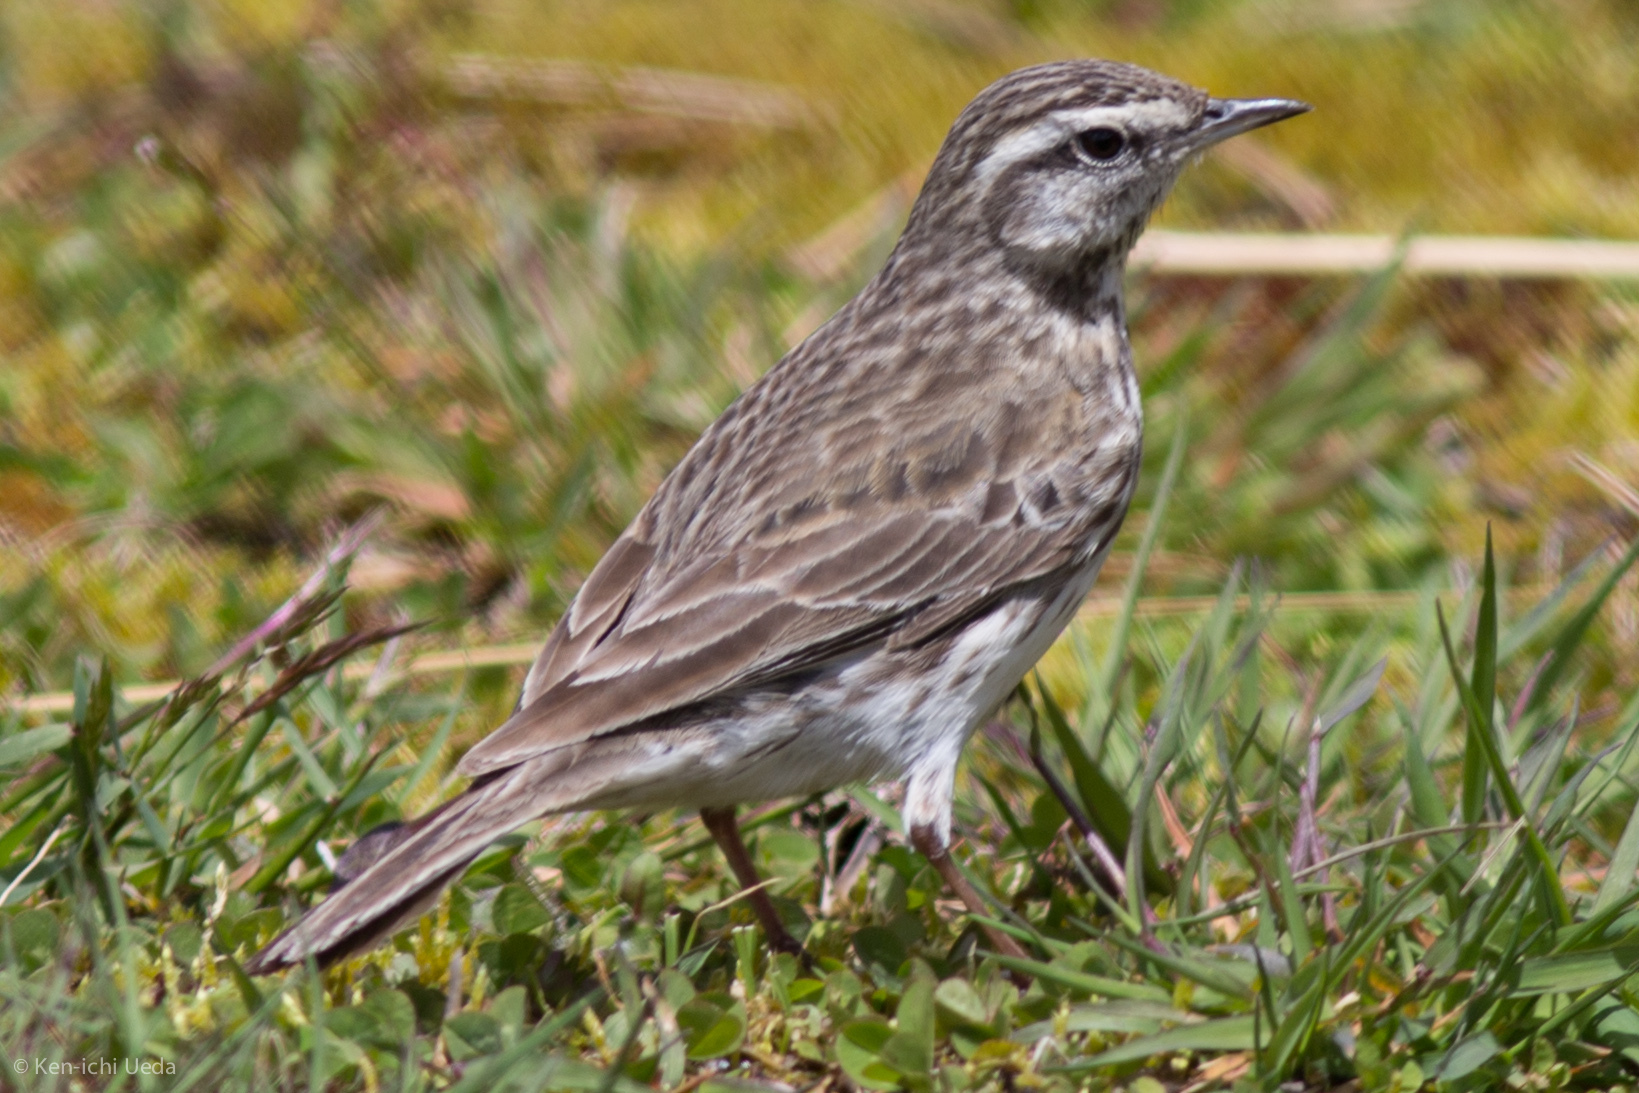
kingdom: Animalia
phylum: Chordata
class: Aves
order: Passeriformes
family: Motacillidae
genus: Anthus
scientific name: Anthus novaeseelandiae
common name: New zealand pipit
